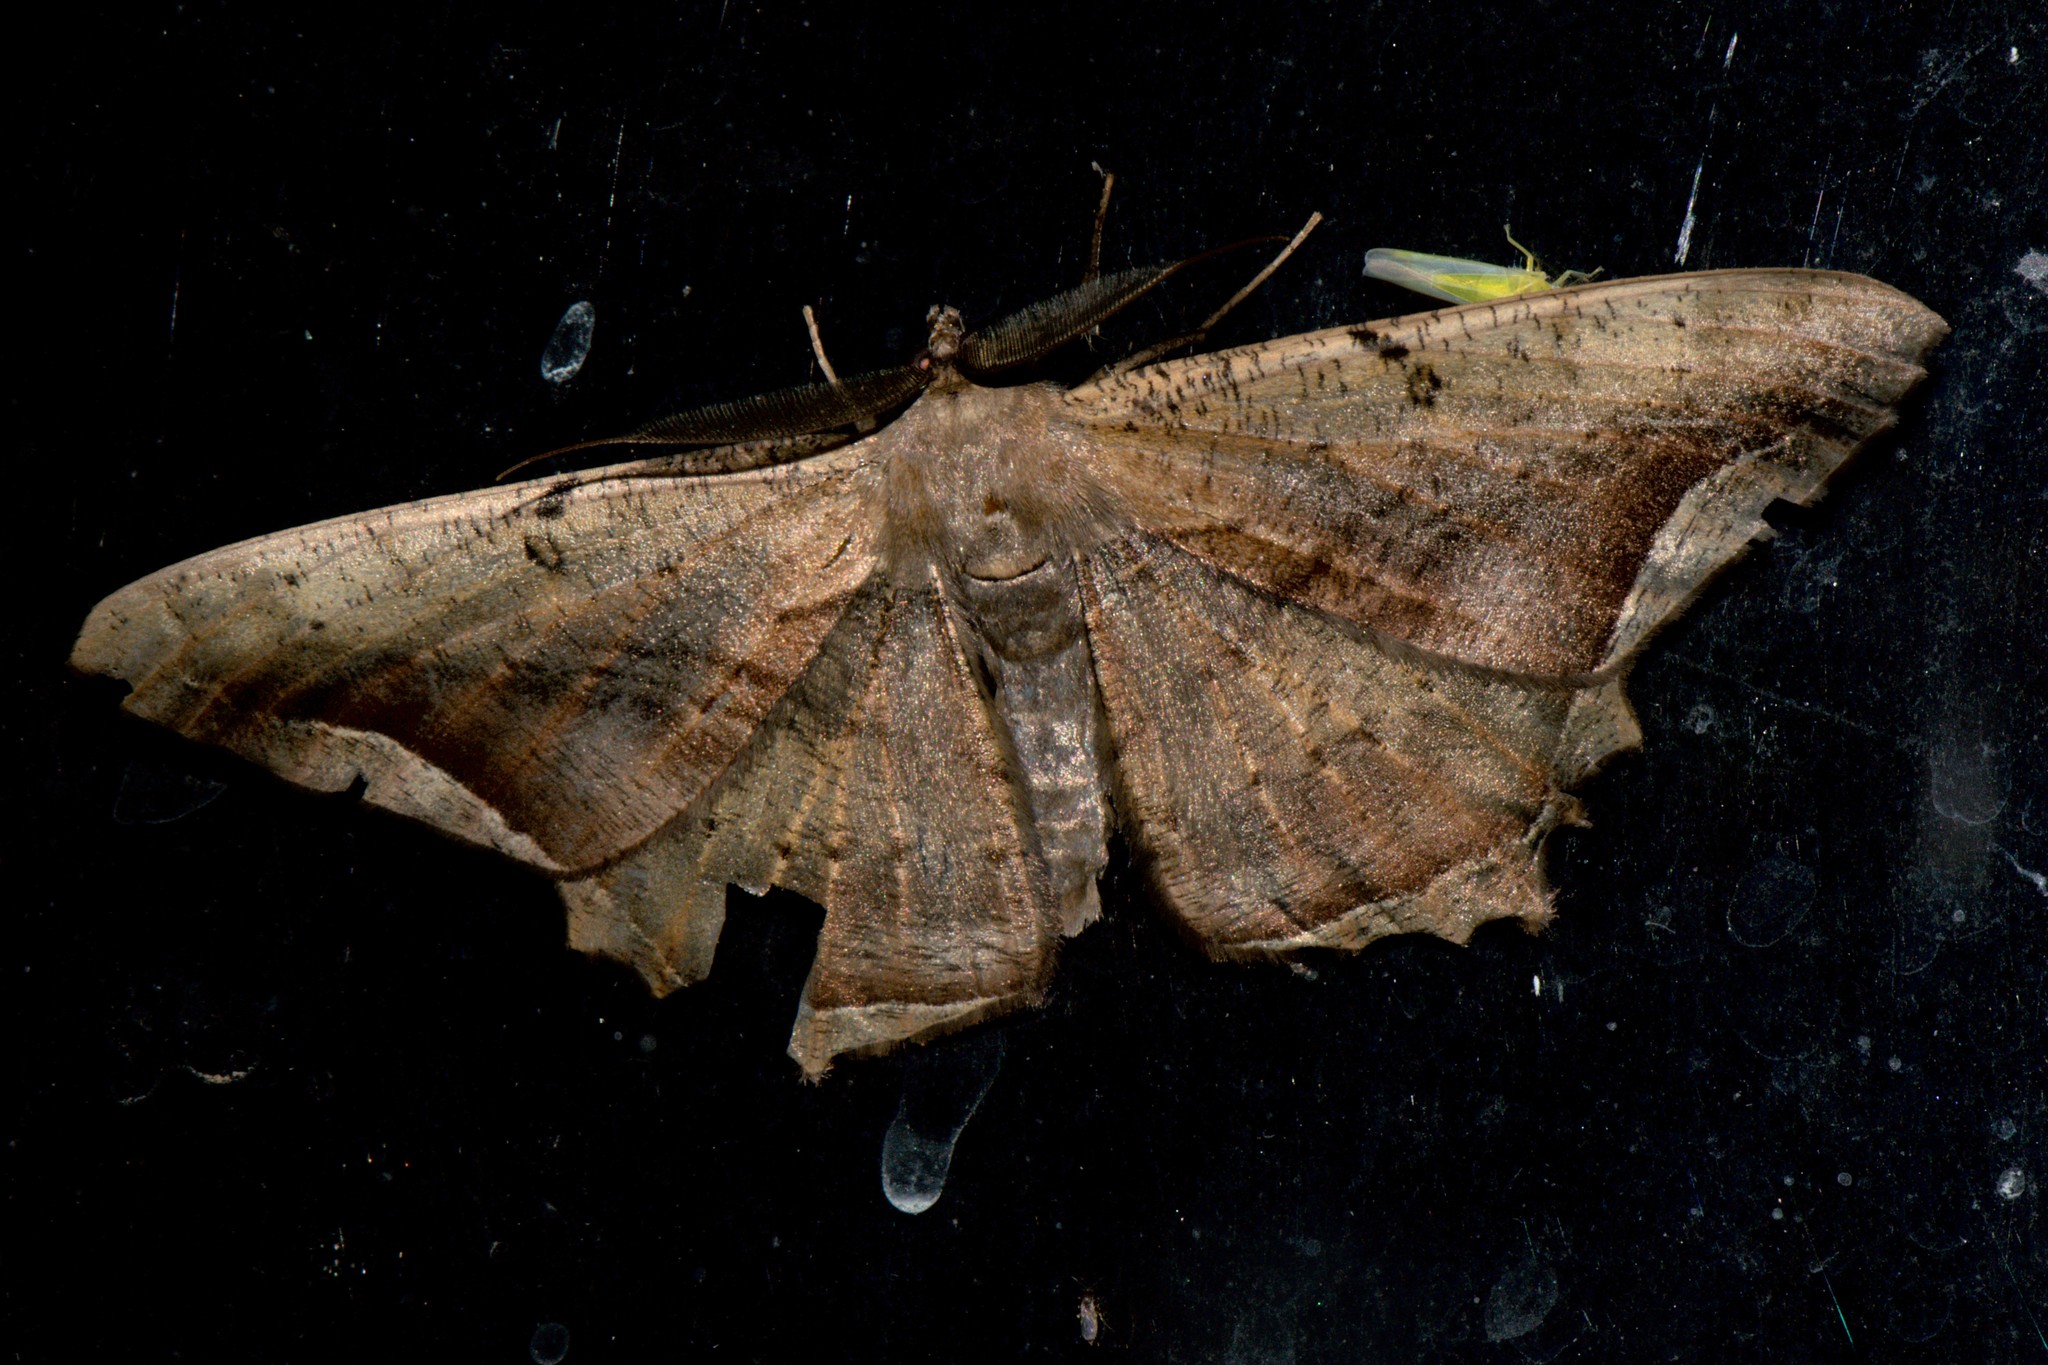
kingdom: Animalia
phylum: Arthropoda
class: Insecta
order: Lepidoptera
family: Geometridae
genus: Chorodna
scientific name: Chorodna adumbrata
